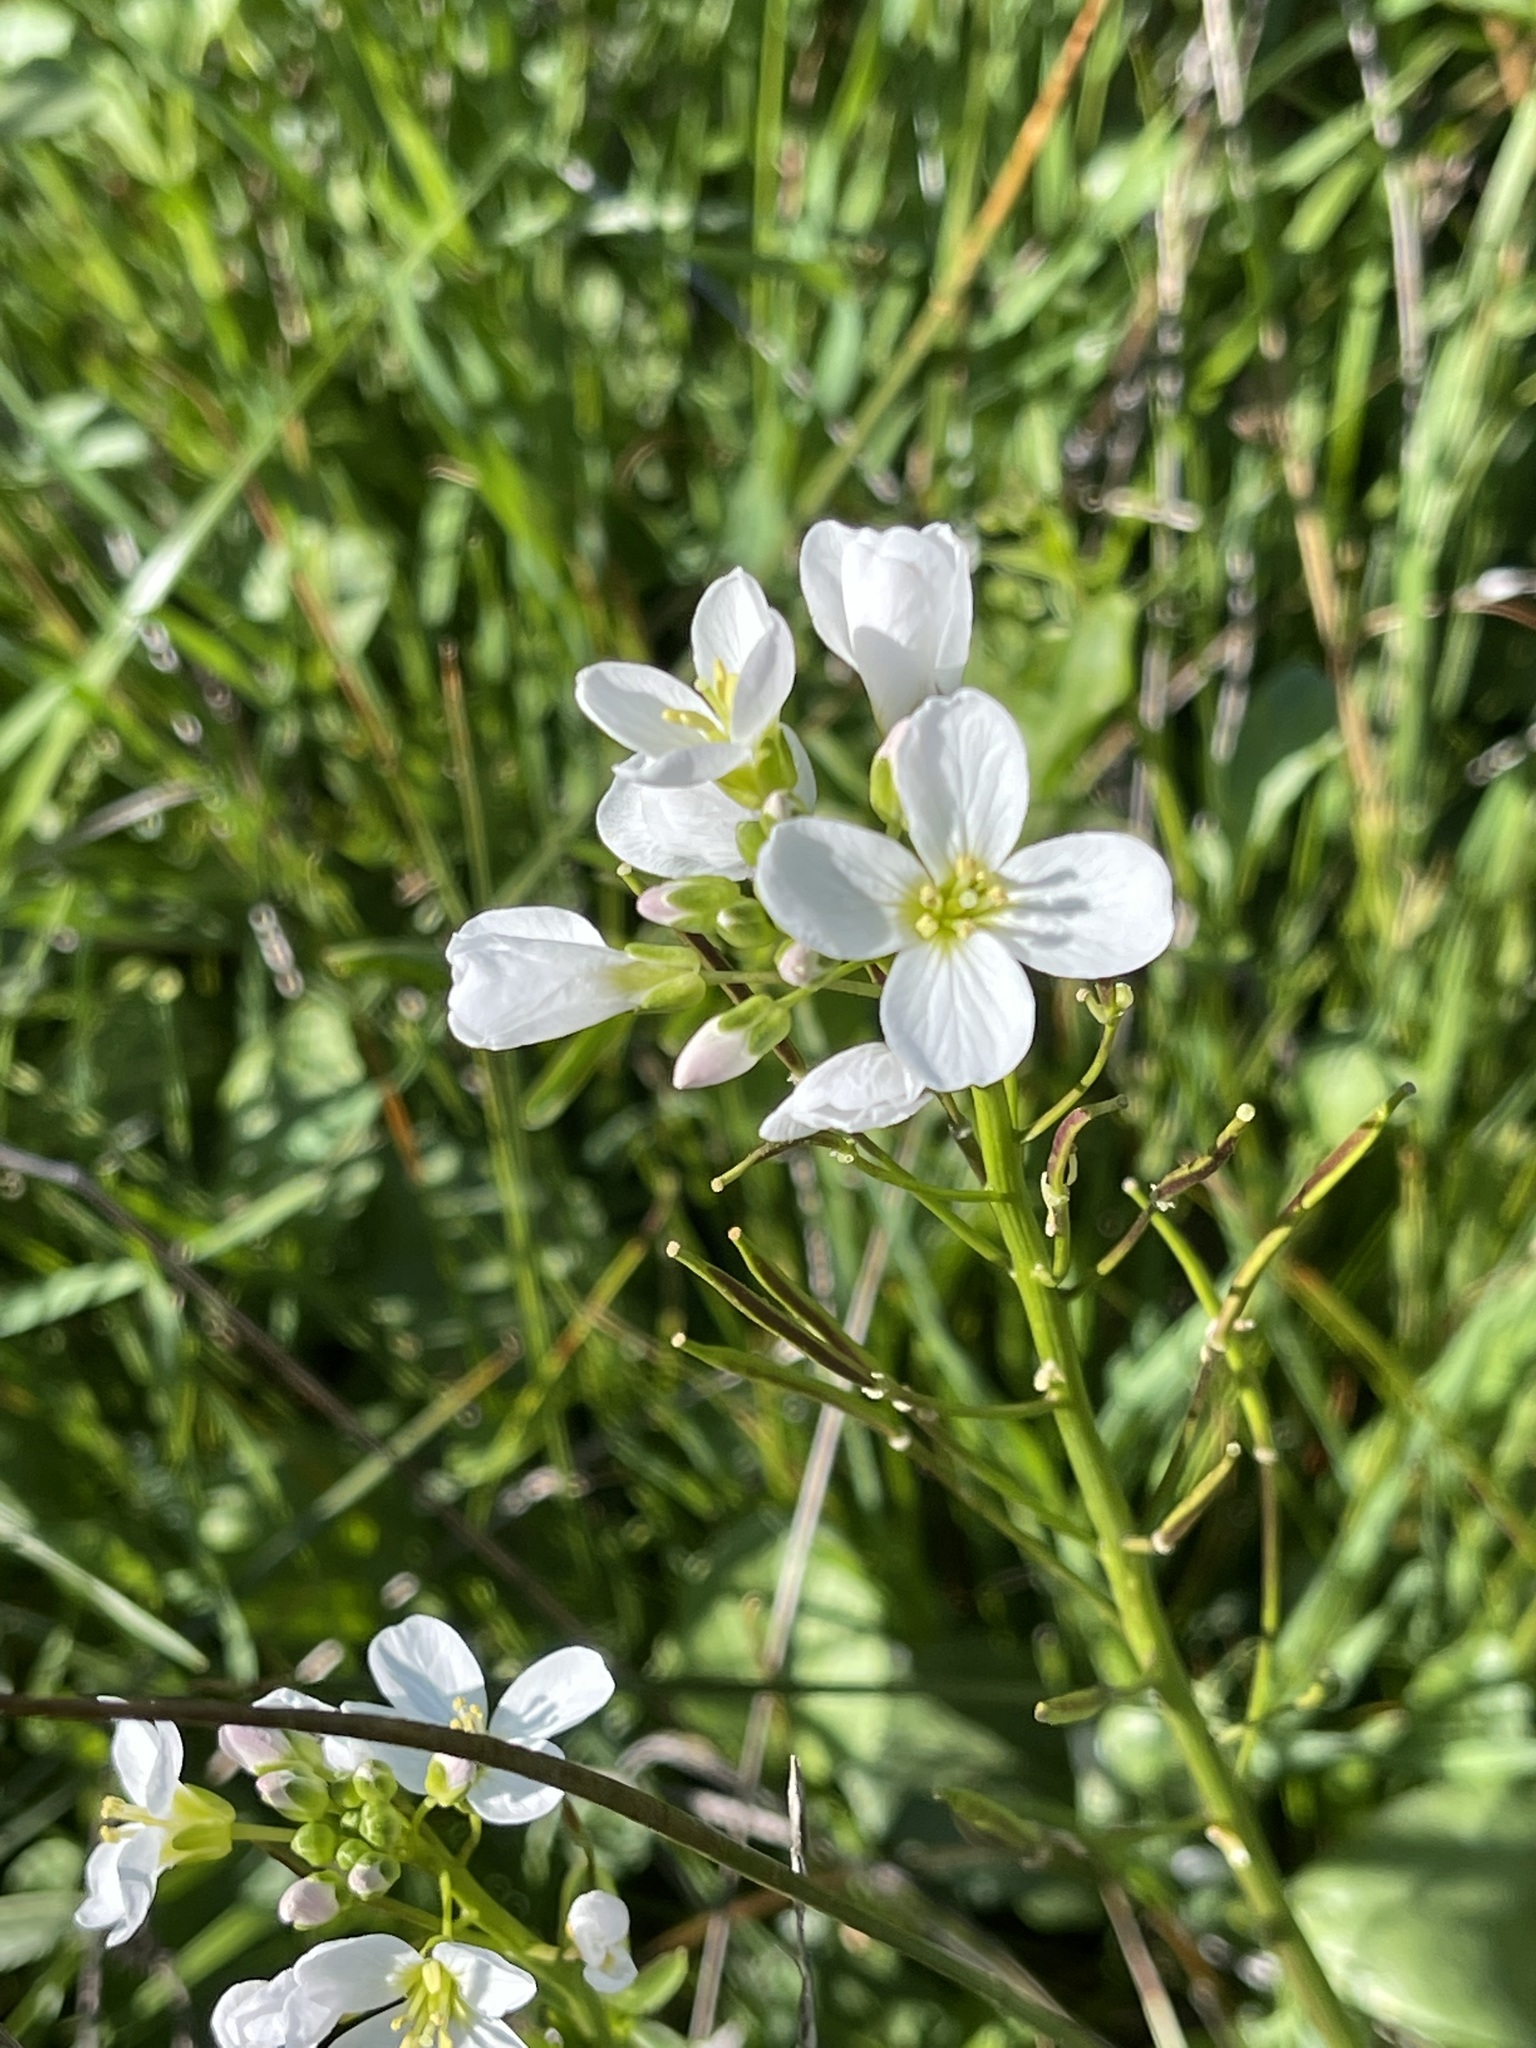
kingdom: Plantae
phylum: Tracheophyta
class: Magnoliopsida
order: Brassicales
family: Brassicaceae
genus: Cardamine
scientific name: Cardamine californica
